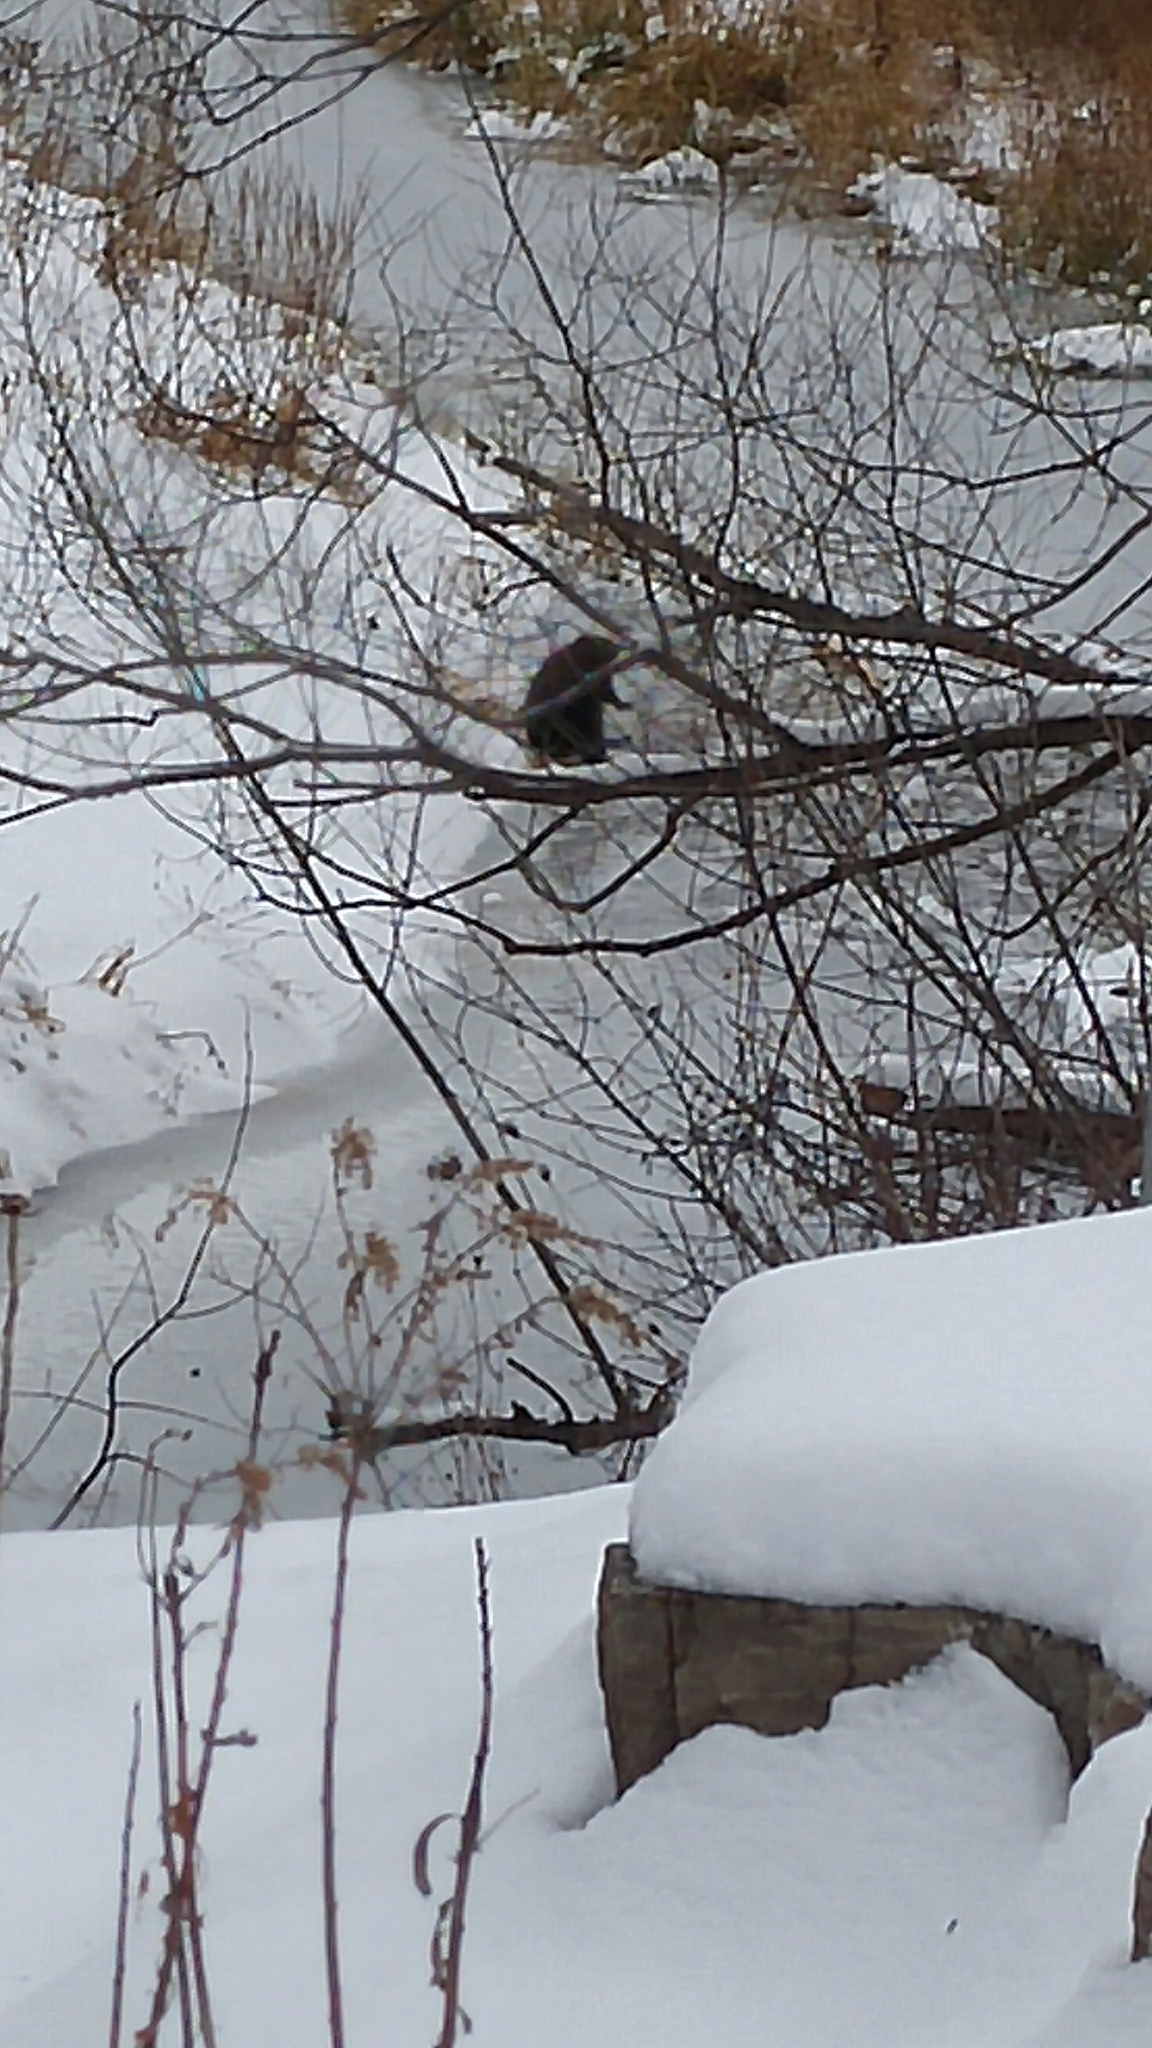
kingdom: Animalia
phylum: Chordata
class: Mammalia
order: Rodentia
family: Castoridae
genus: Castor
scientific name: Castor canadensis
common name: American beaver
